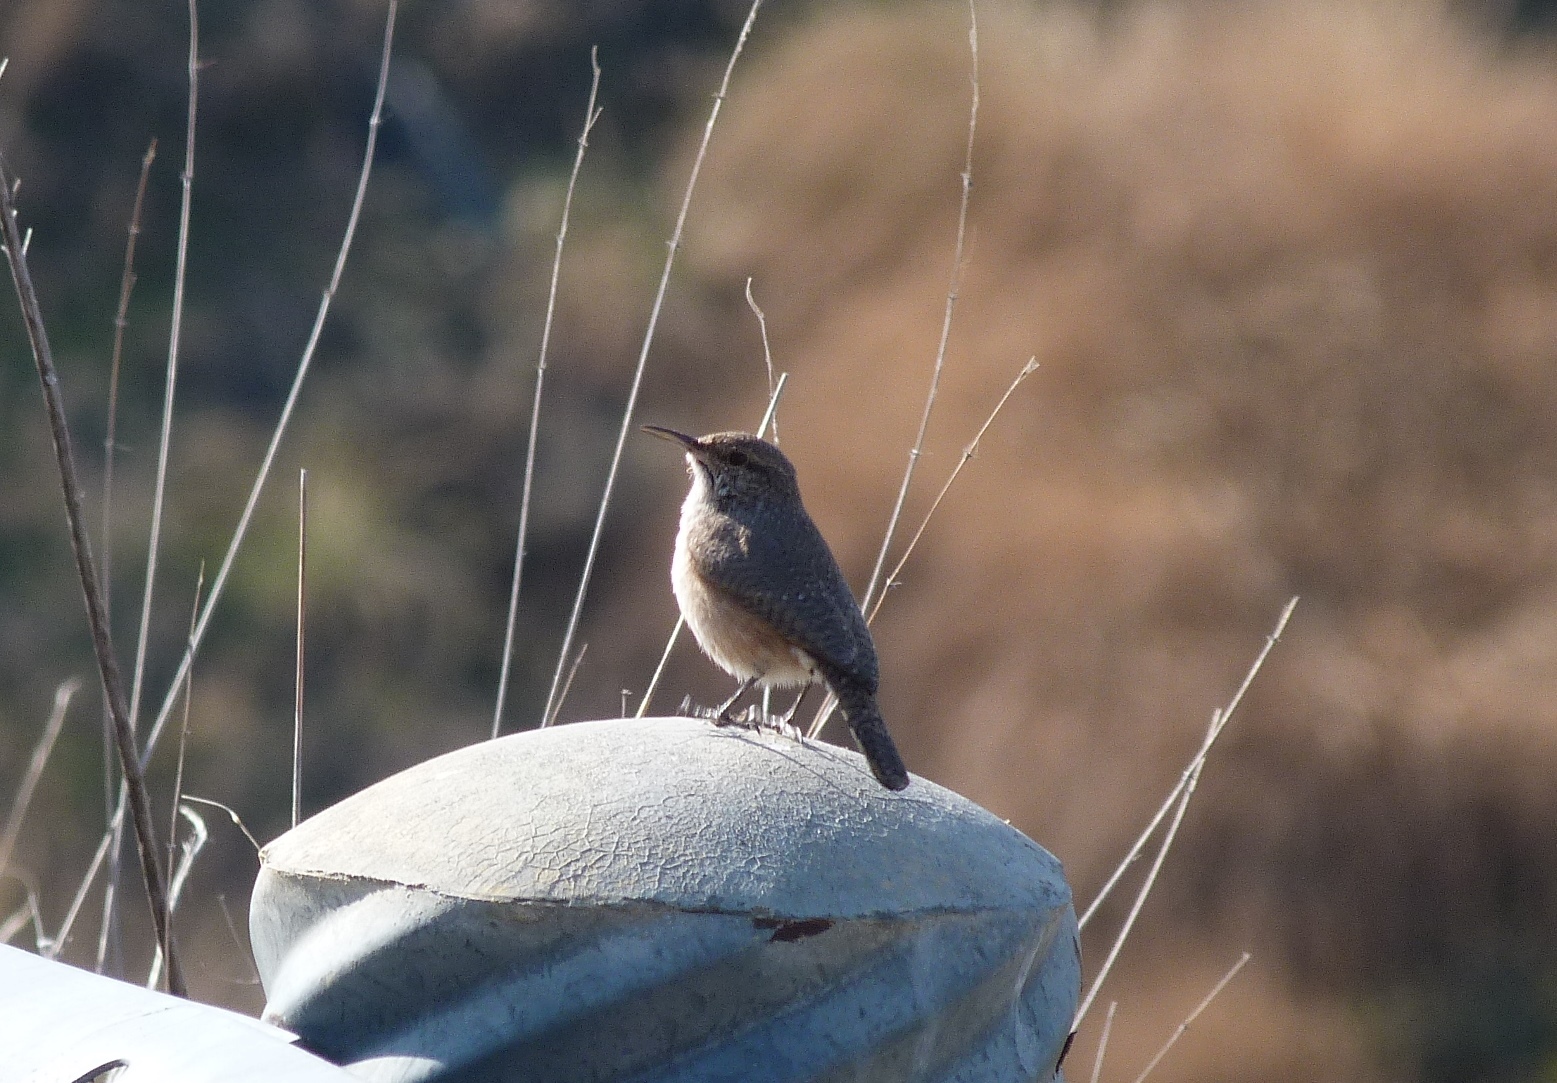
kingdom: Animalia
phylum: Chordata
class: Aves
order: Passeriformes
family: Troglodytidae
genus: Salpinctes
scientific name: Salpinctes obsoletus
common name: Rock wren
